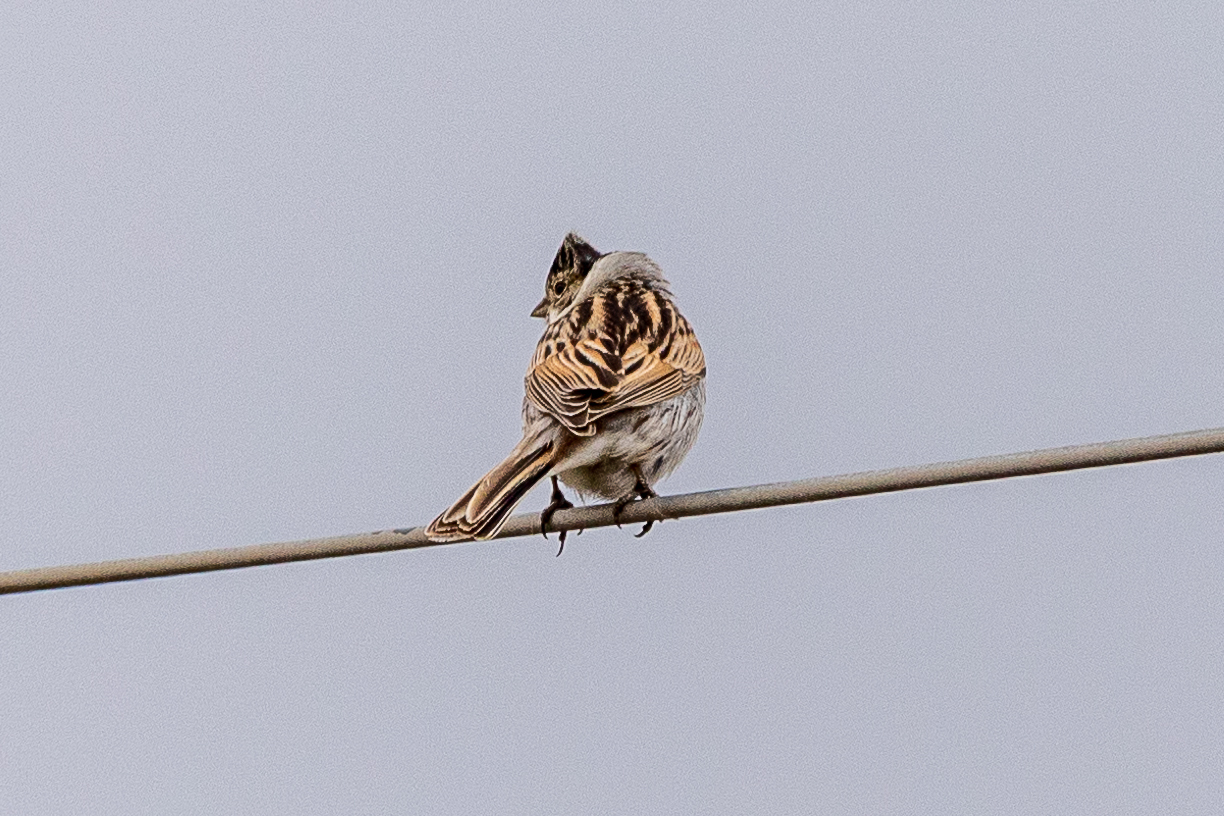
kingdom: Animalia
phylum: Chordata
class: Aves
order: Passeriformes
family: Emberizidae
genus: Emberiza
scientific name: Emberiza schoeniclus
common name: Reed bunting
